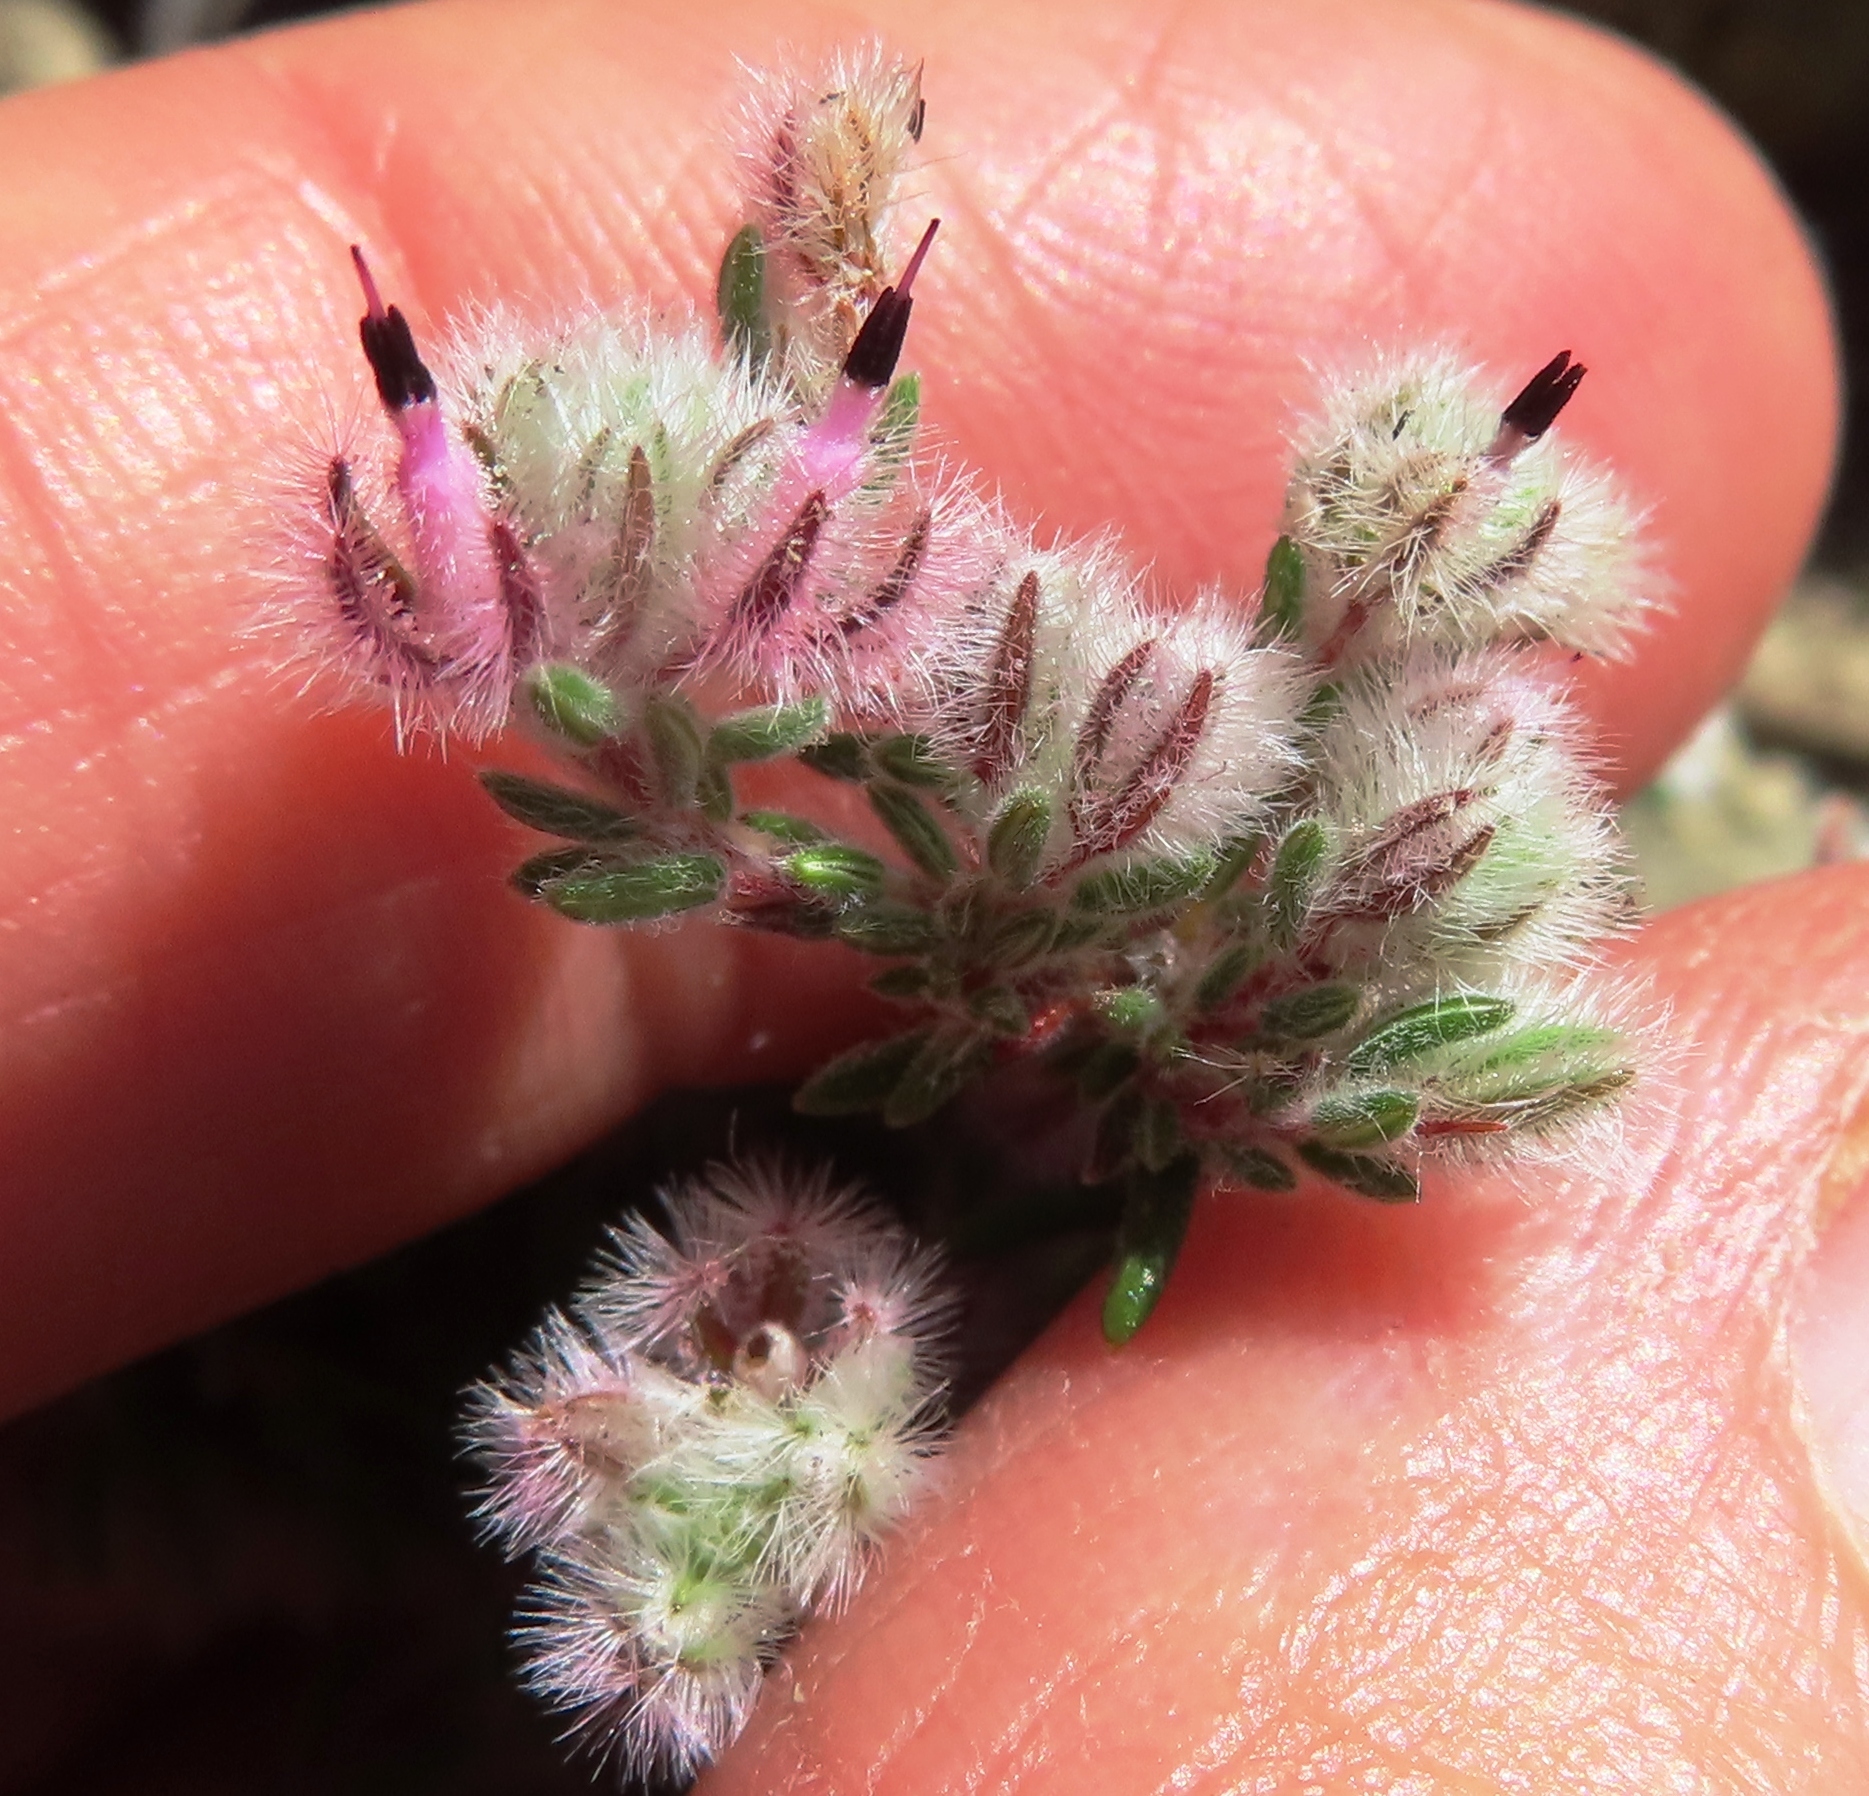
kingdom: Plantae
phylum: Tracheophyta
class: Magnoliopsida
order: Ericales
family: Ericaceae
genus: Erica
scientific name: Erica pilosiflora
